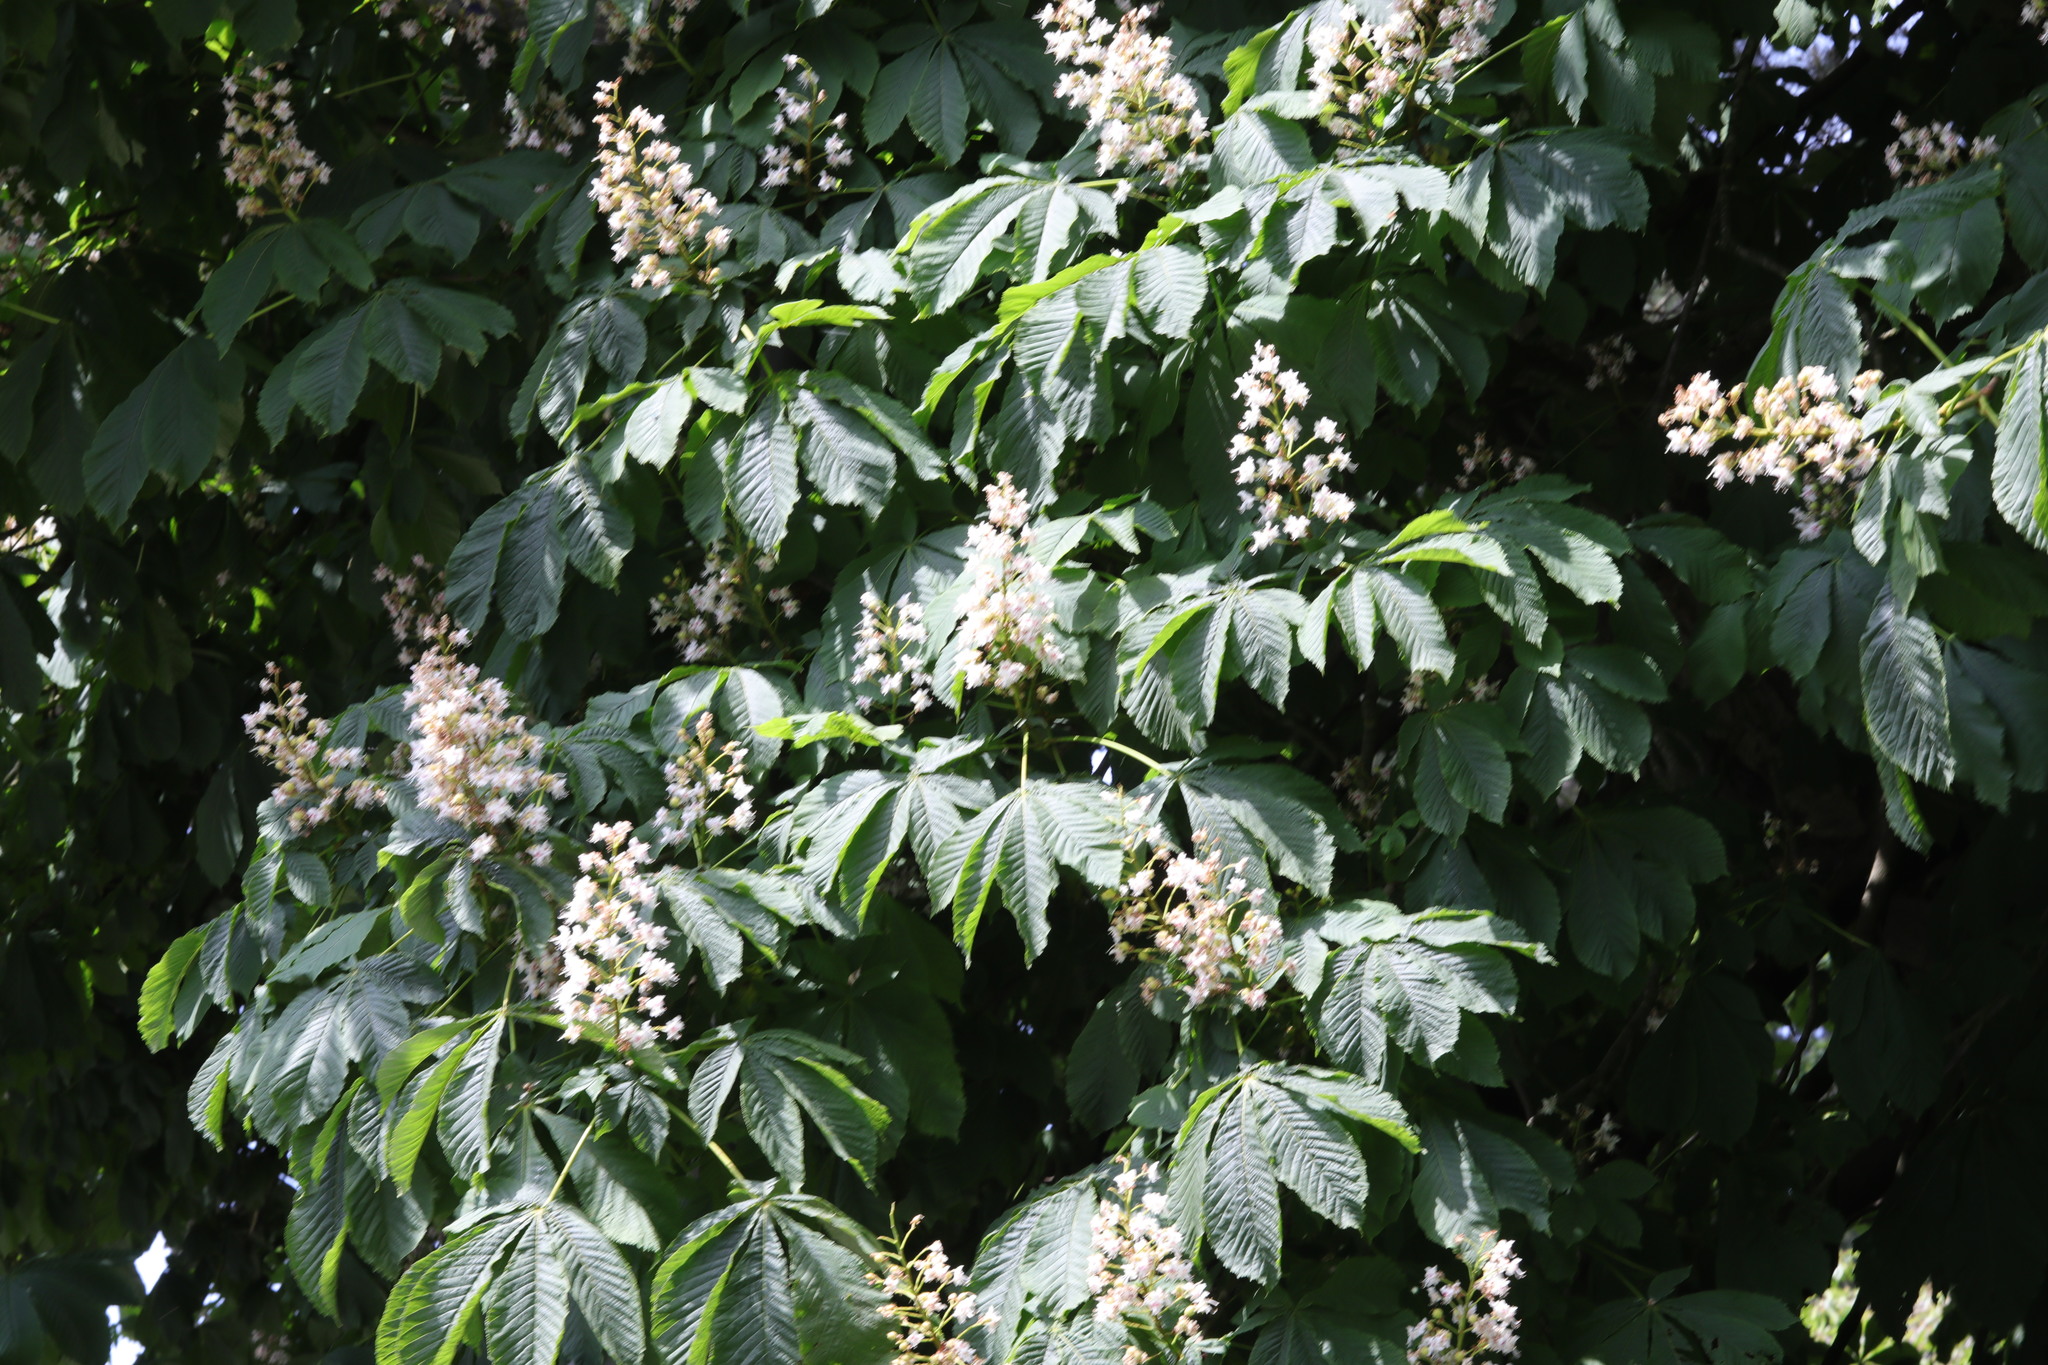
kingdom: Plantae
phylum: Tracheophyta
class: Magnoliopsida
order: Sapindales
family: Sapindaceae
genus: Aesculus
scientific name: Aesculus hippocastanum
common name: Horse-chestnut
